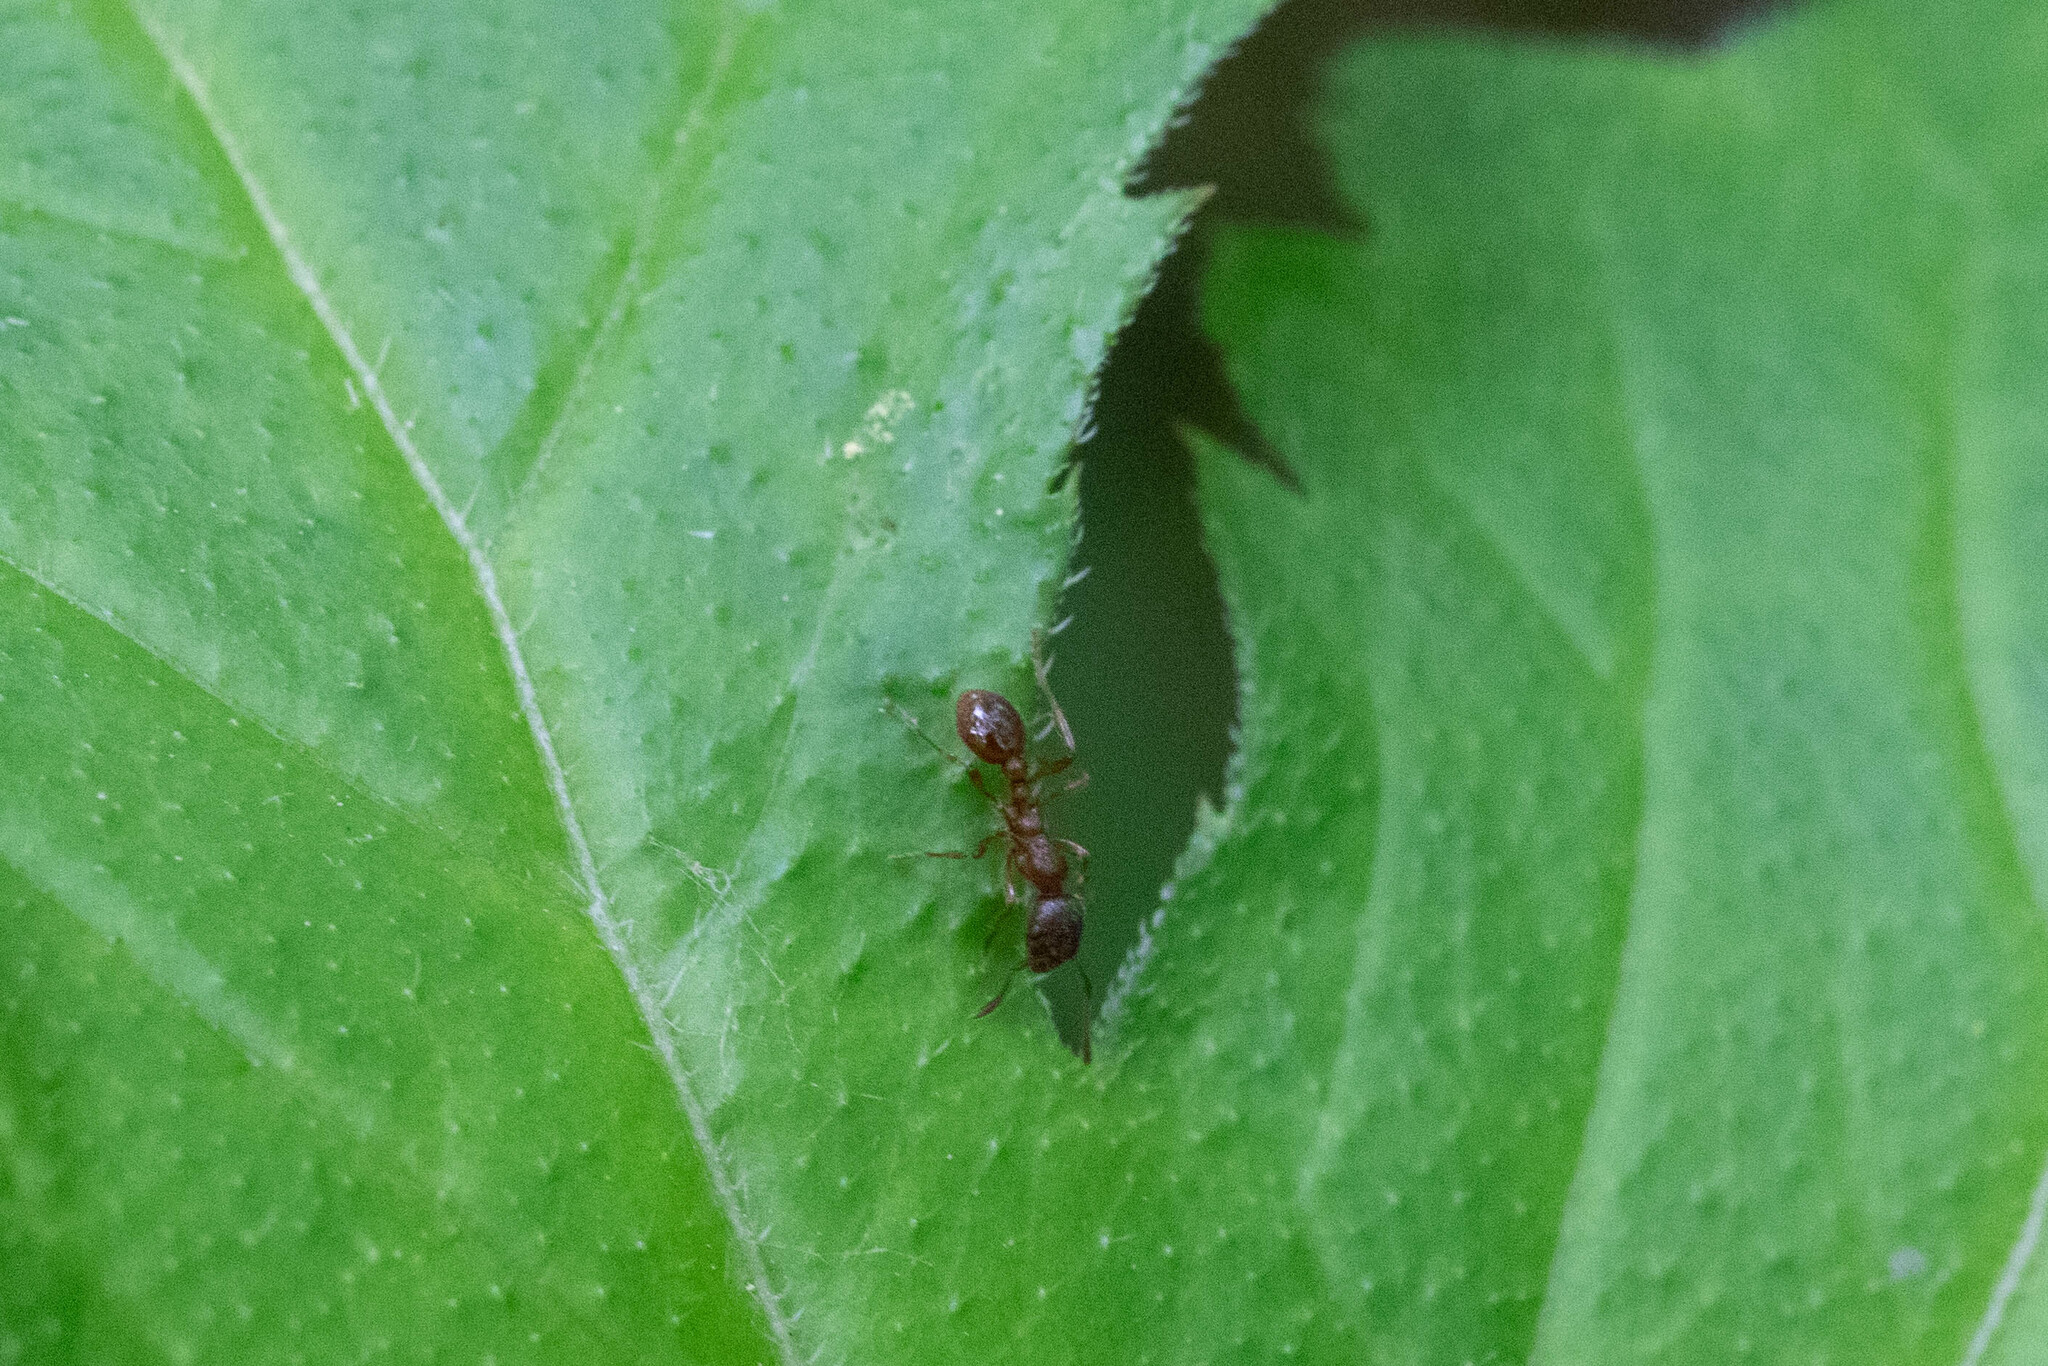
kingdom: Animalia
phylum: Arthropoda
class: Insecta
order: Hymenoptera
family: Formicidae
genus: Myrmica
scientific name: Myrmica rubra
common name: European fire ant
